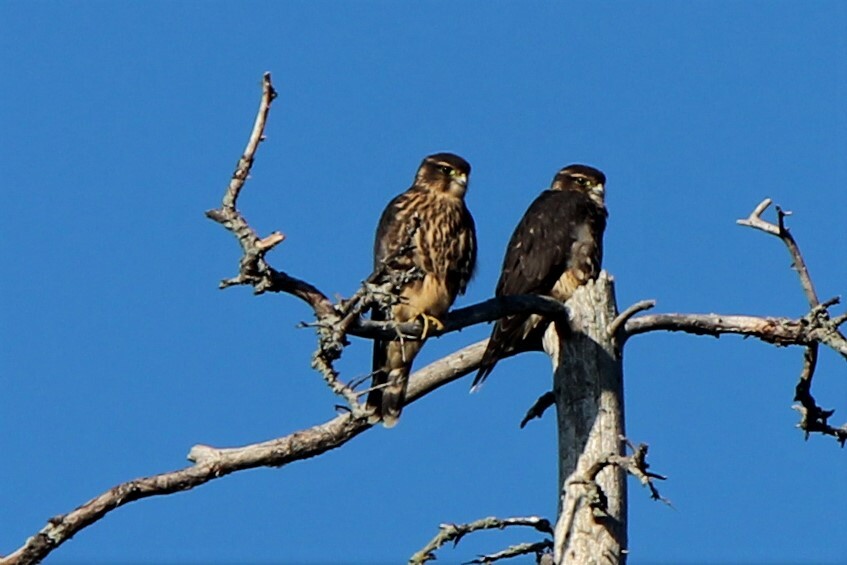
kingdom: Animalia
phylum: Chordata
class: Aves
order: Falconiformes
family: Falconidae
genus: Falco
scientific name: Falco columbarius
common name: Merlin
